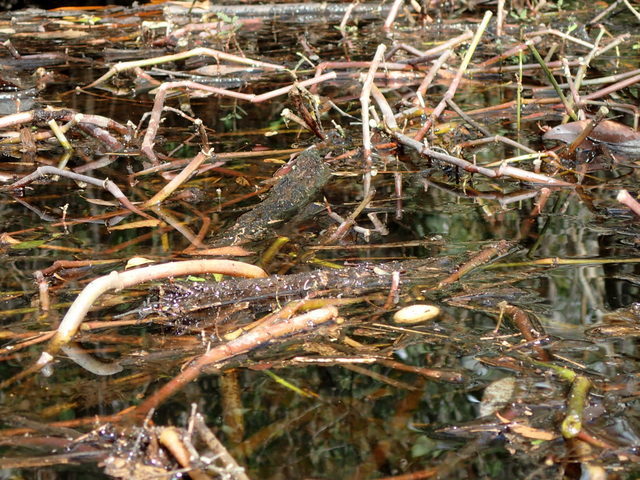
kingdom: Plantae
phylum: Tracheophyta
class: Magnoliopsida
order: Caryophyllales
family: Amaranthaceae
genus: Alternanthera
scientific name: Alternanthera philoxeroides
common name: Alligatorweed
